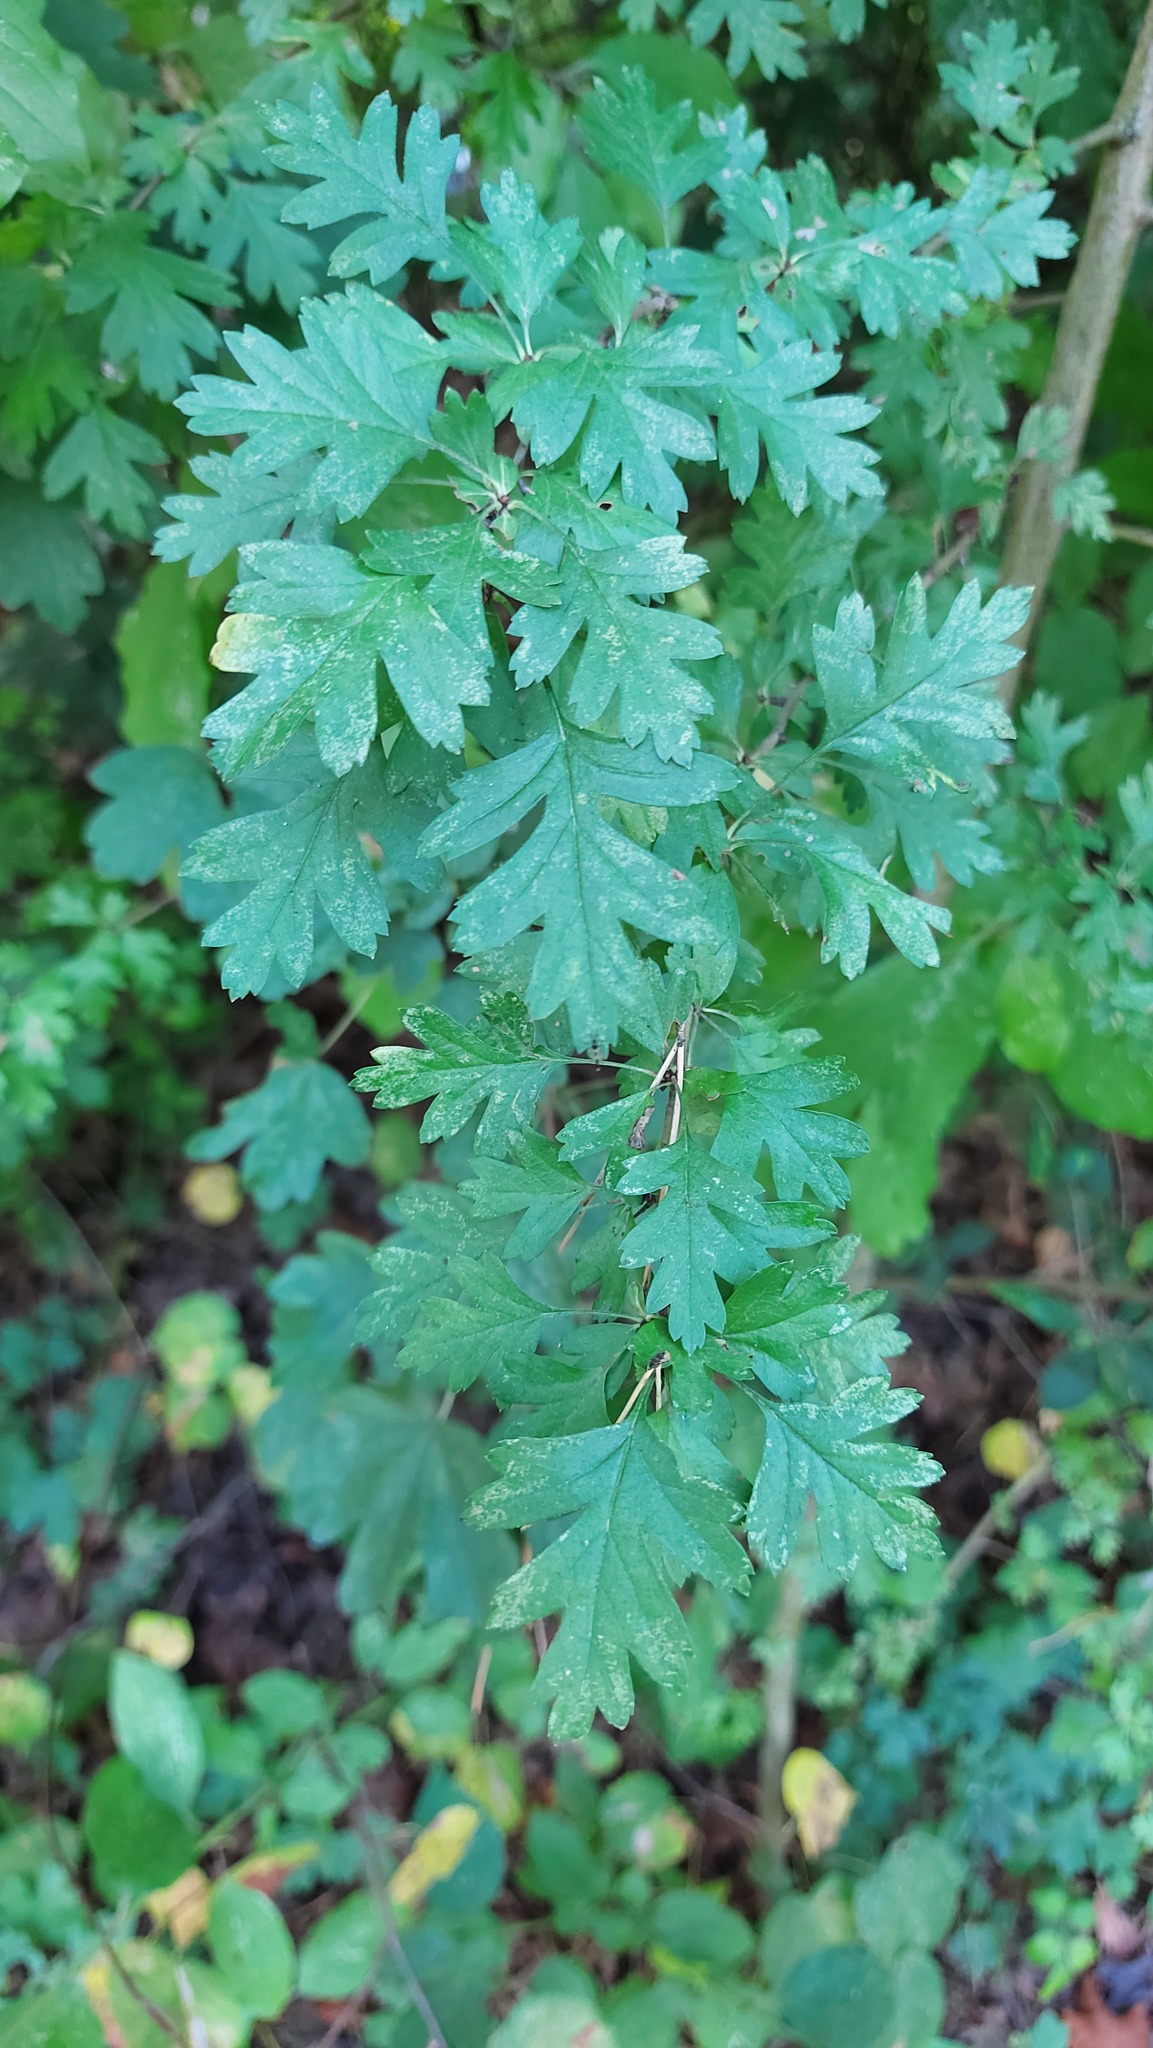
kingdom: Plantae
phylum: Tracheophyta
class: Magnoliopsida
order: Rosales
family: Rosaceae
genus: Crataegus
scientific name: Crataegus monogyna
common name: Hawthorn
